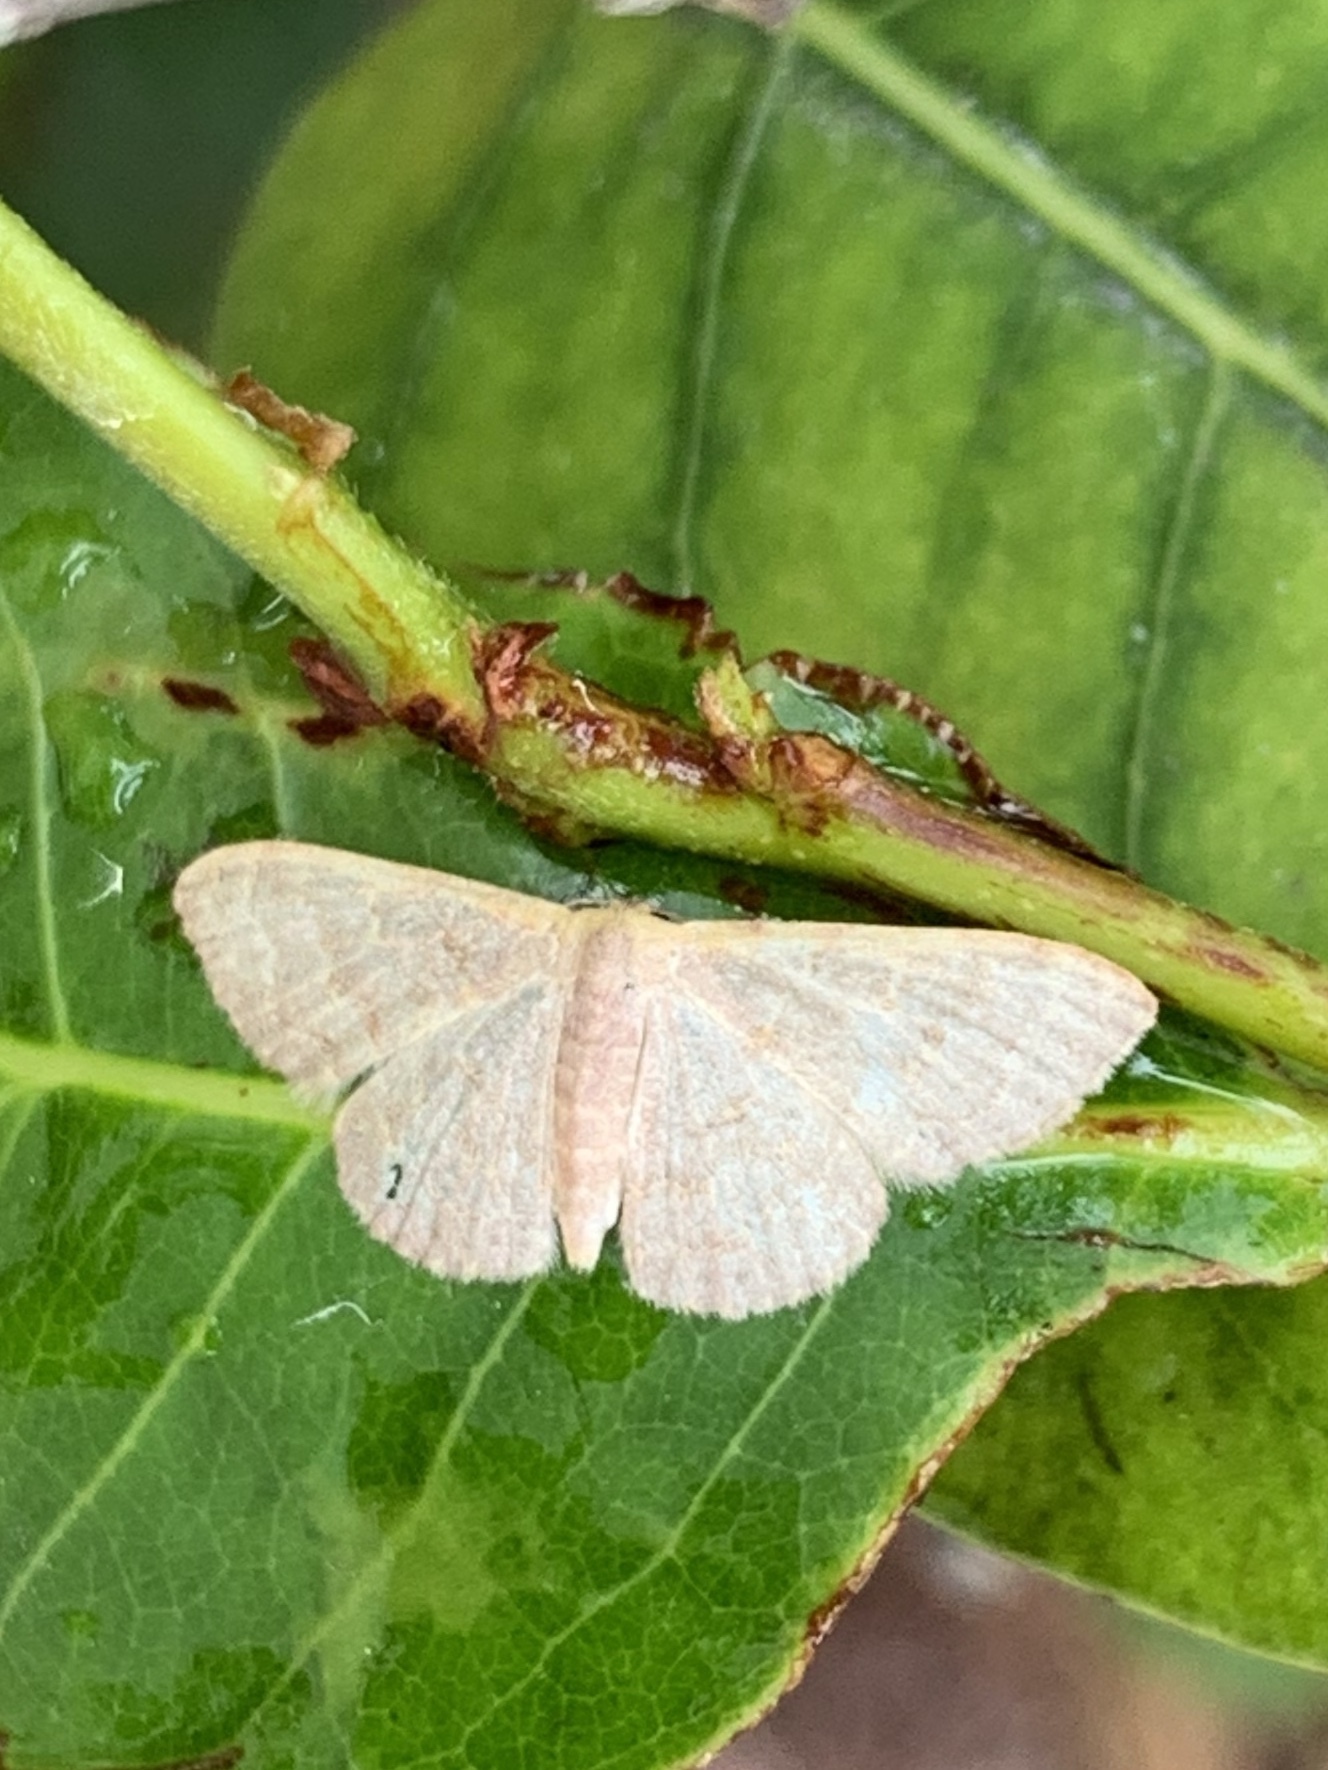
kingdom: Animalia
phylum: Arthropoda
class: Insecta
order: Lepidoptera
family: Geometridae
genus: Leptostales
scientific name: Leptostales pannaria
